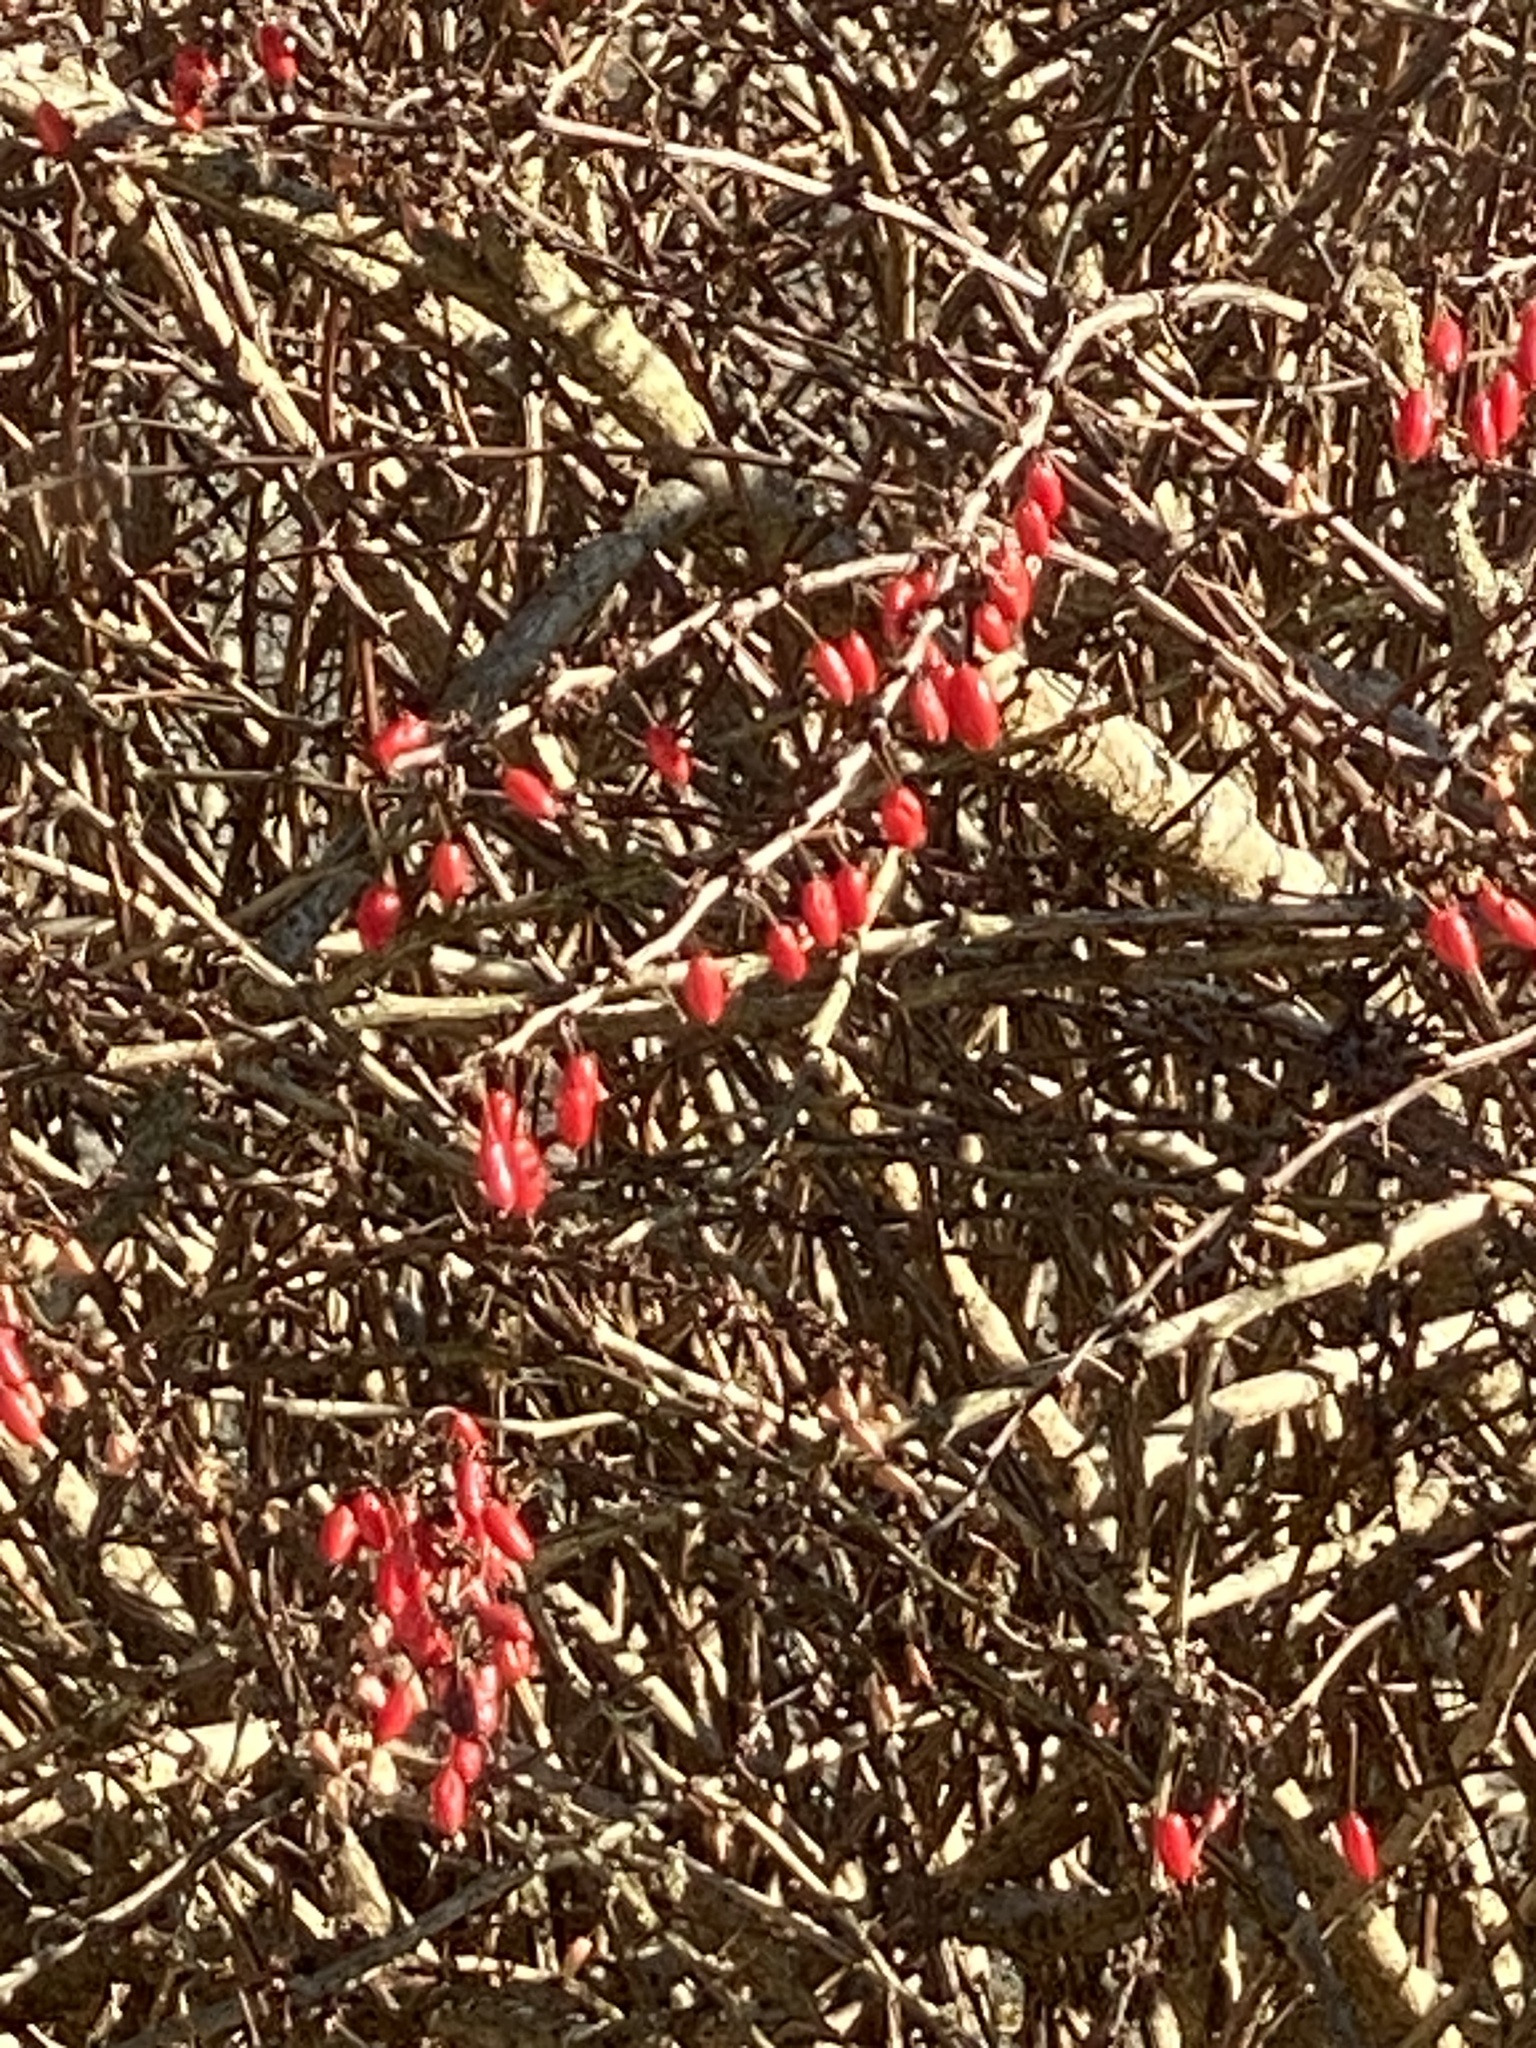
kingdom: Plantae
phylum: Tracheophyta
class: Magnoliopsida
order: Ranunculales
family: Berberidaceae
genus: Berberis
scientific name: Berberis thunbergii
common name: Japanese barberry
